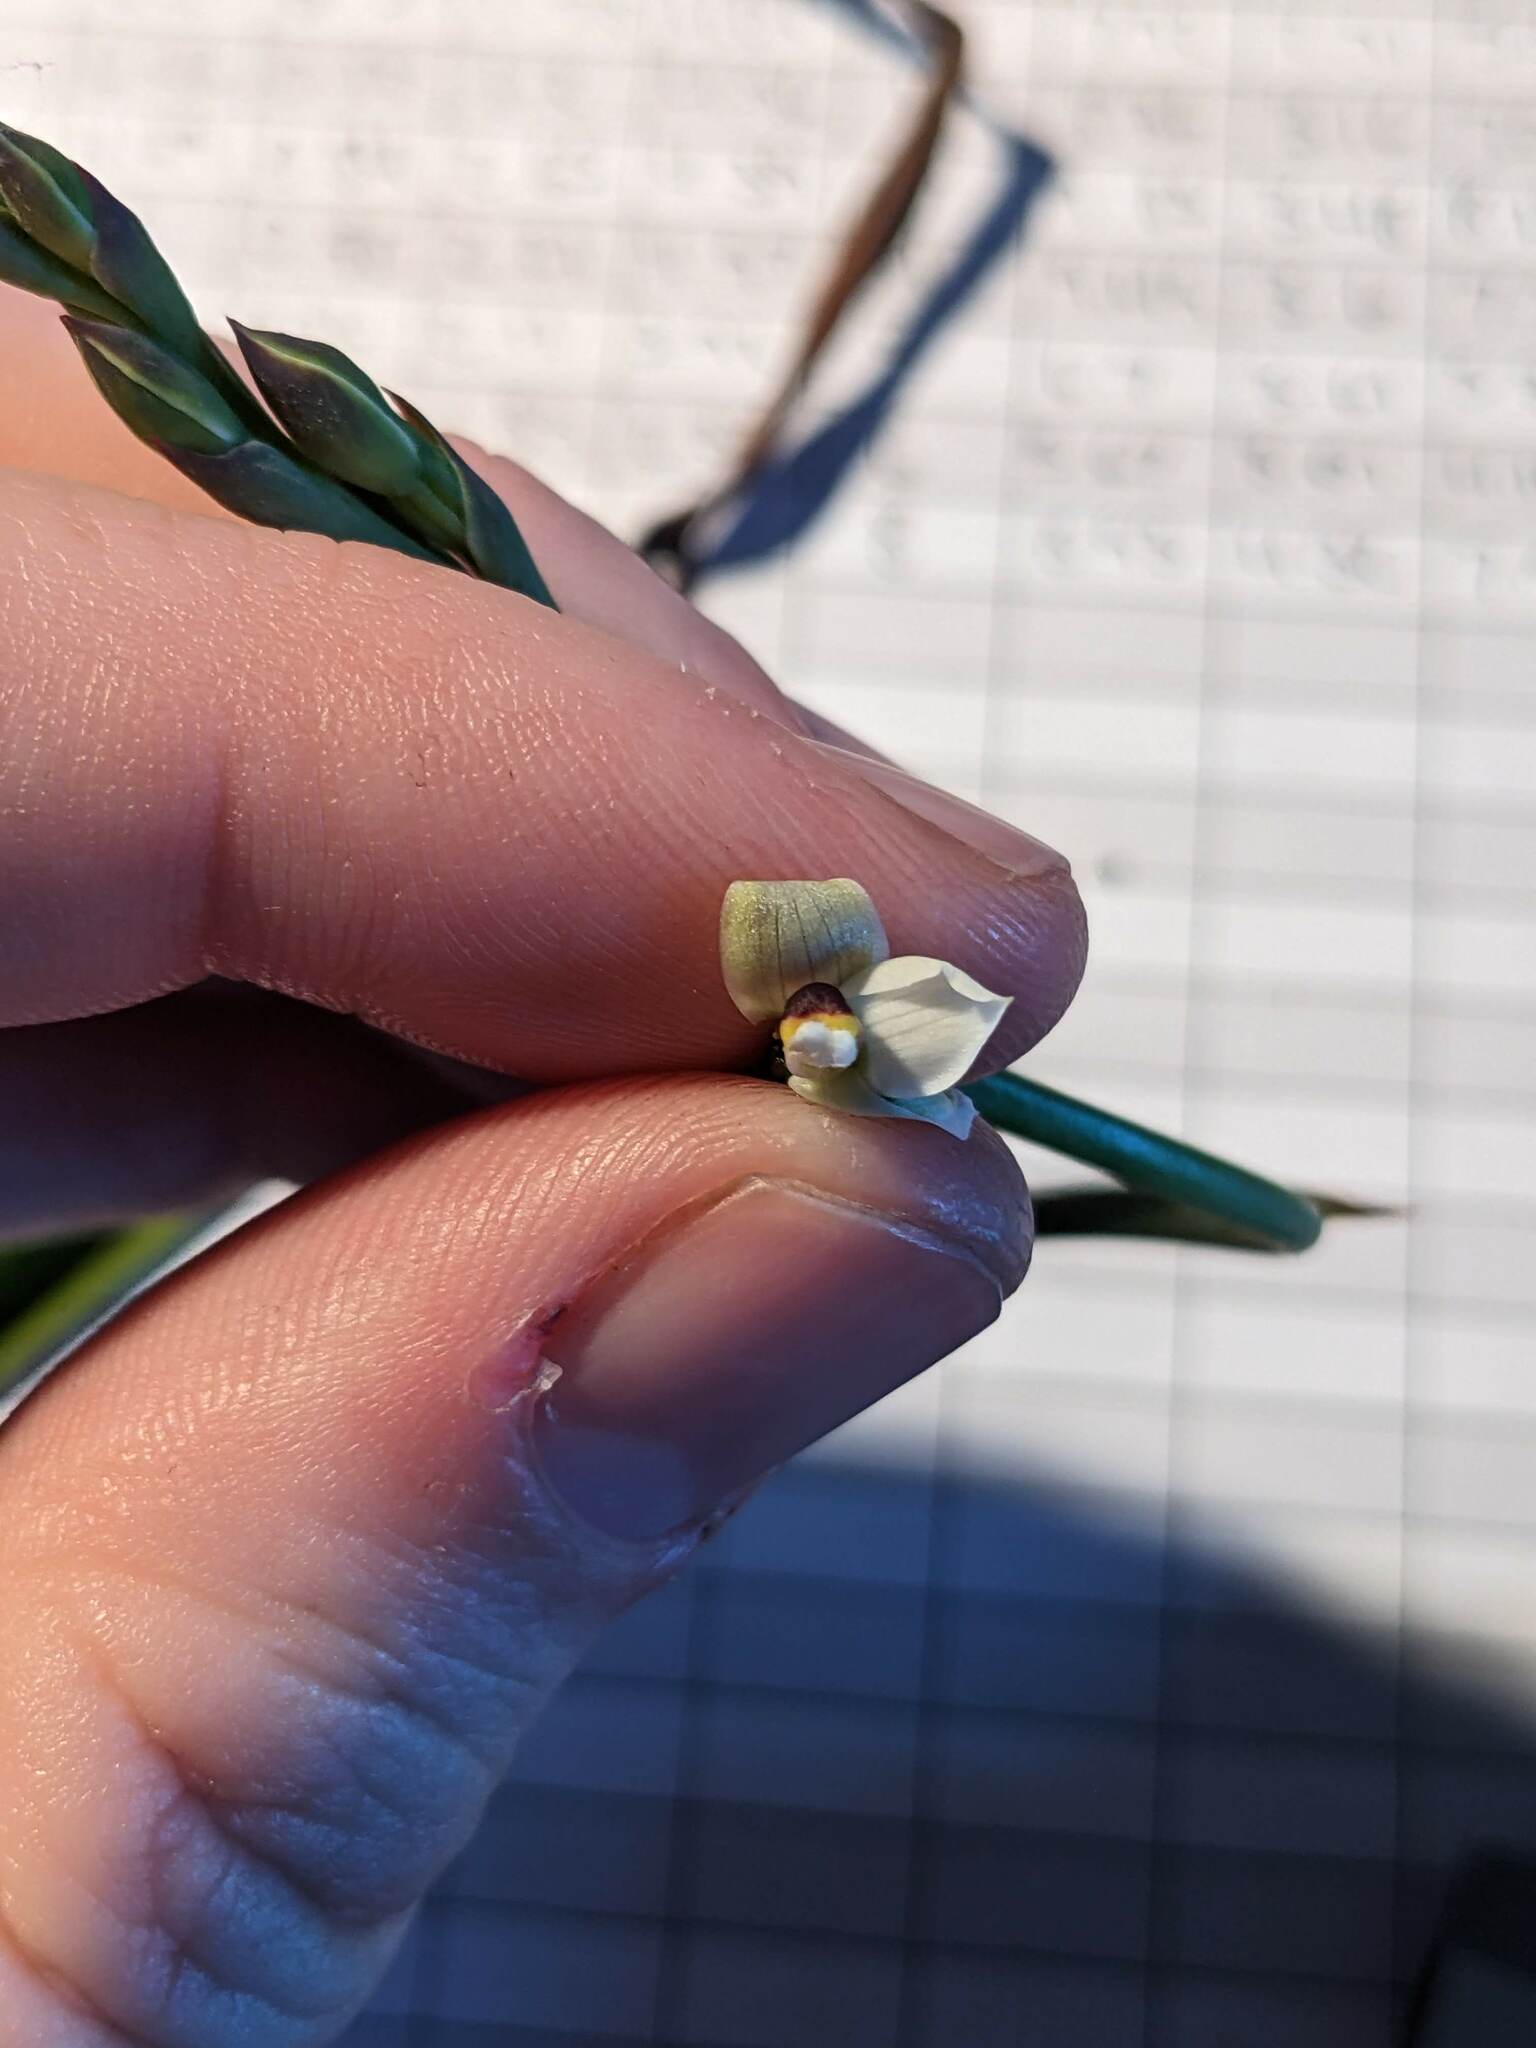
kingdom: Plantae
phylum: Tracheophyta
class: Liliopsida
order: Asparagales
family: Orchidaceae
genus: Thelymitra
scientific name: Thelymitra longifolia
